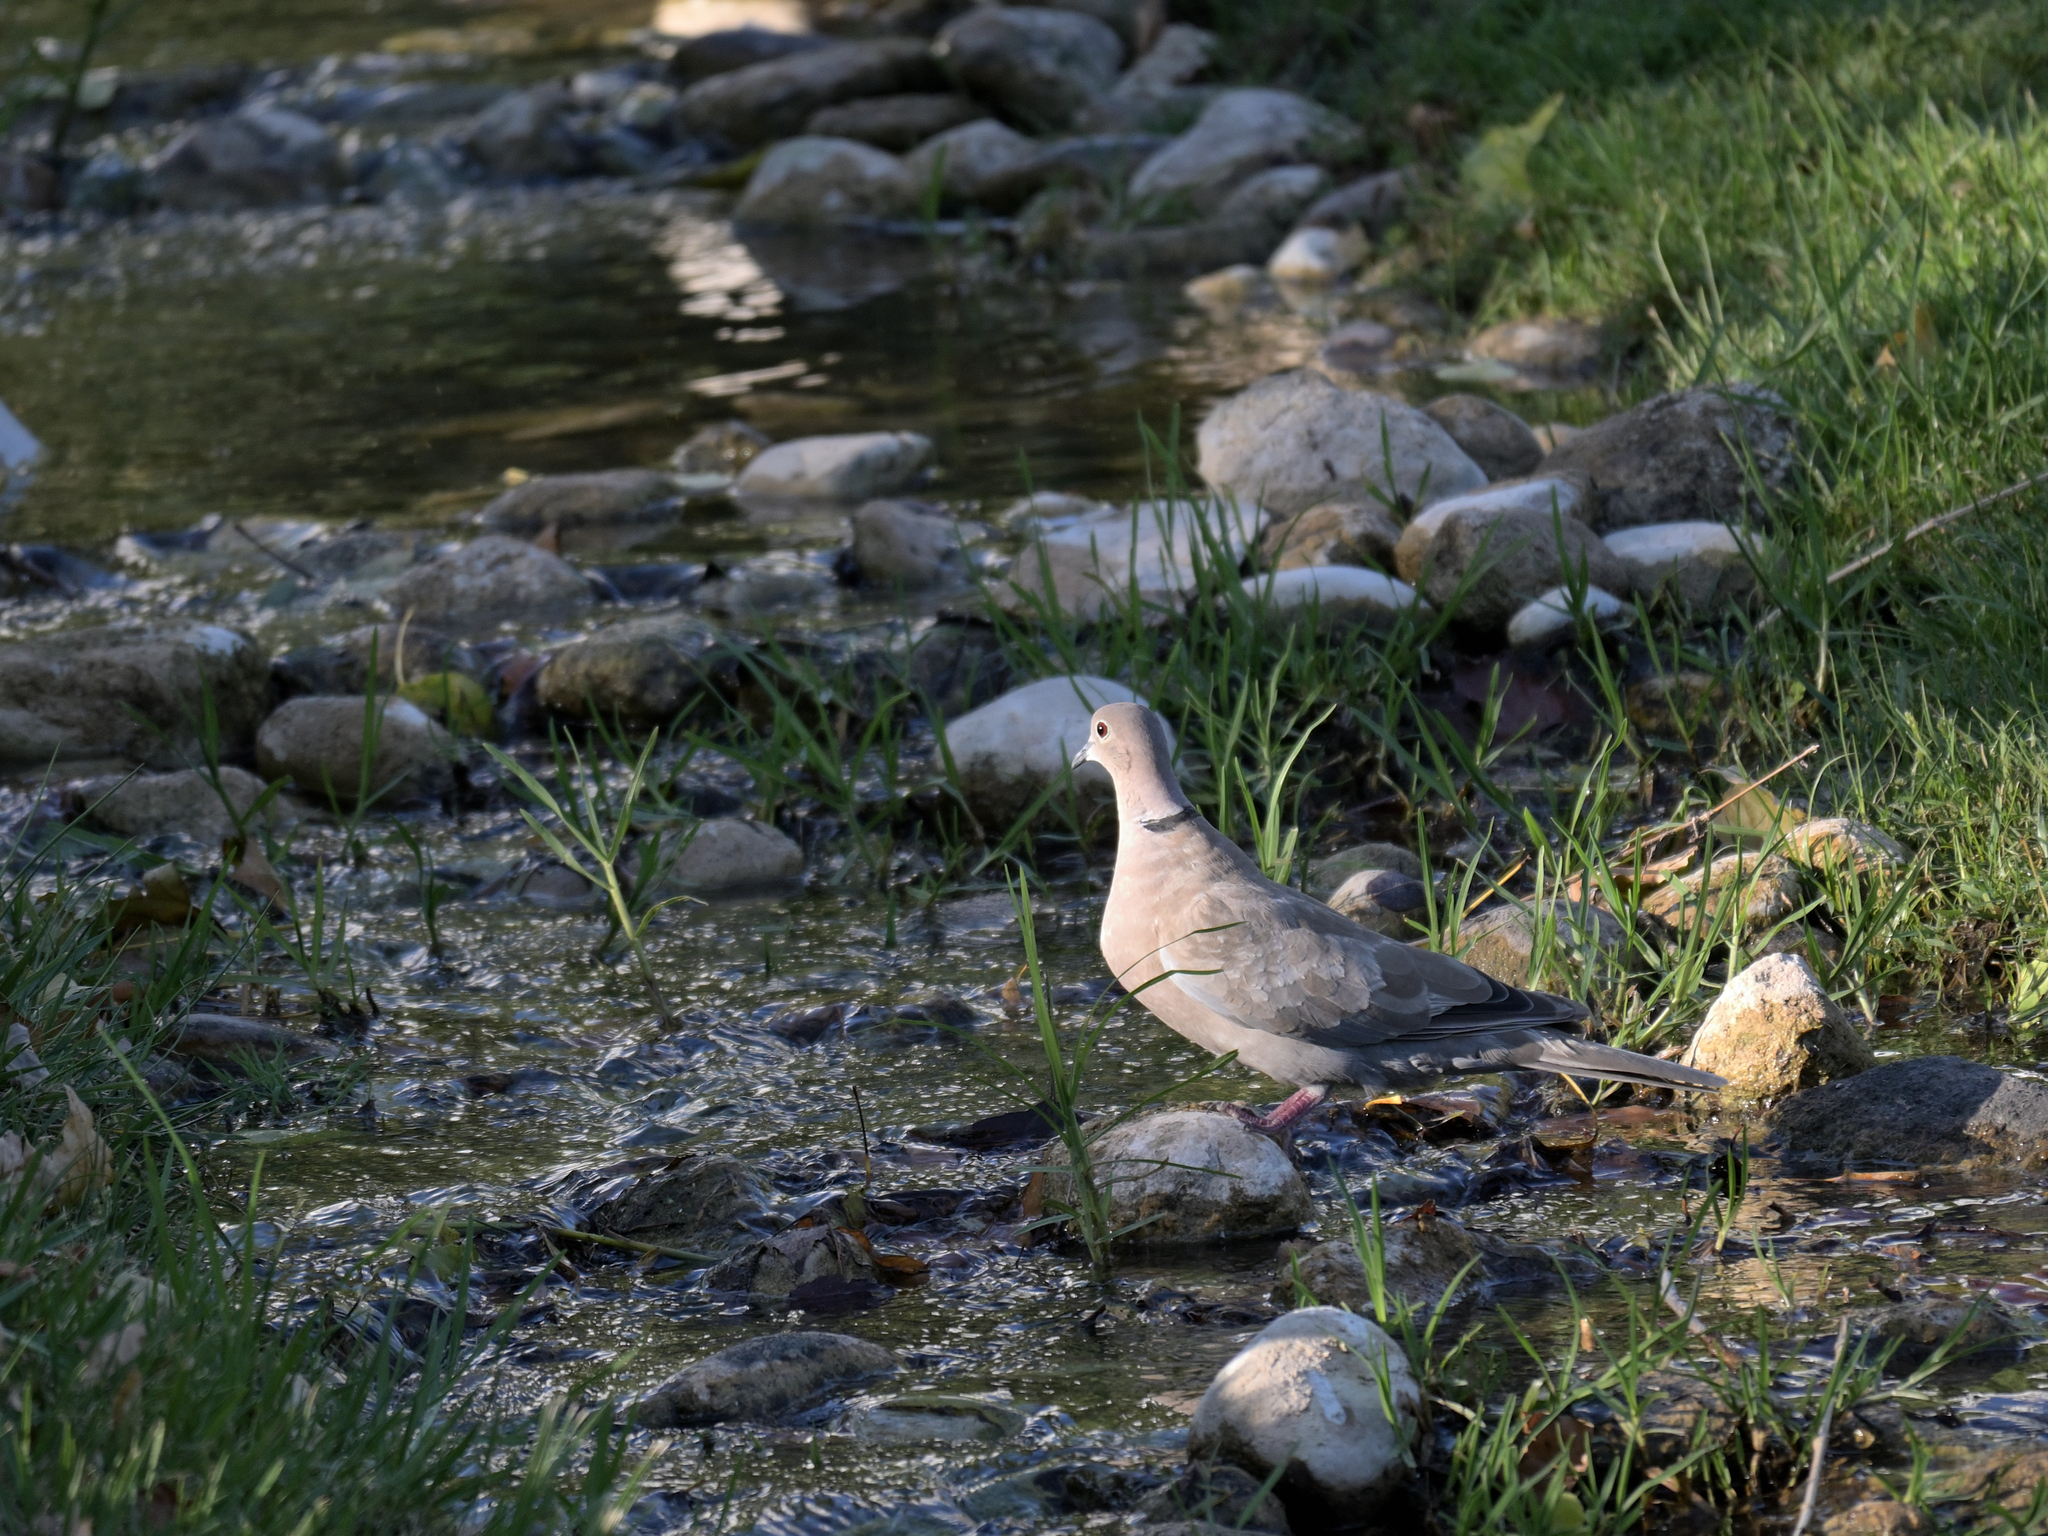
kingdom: Animalia
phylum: Chordata
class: Aves
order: Columbiformes
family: Columbidae
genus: Streptopelia
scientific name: Streptopelia decaocto
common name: Eurasian collared dove
